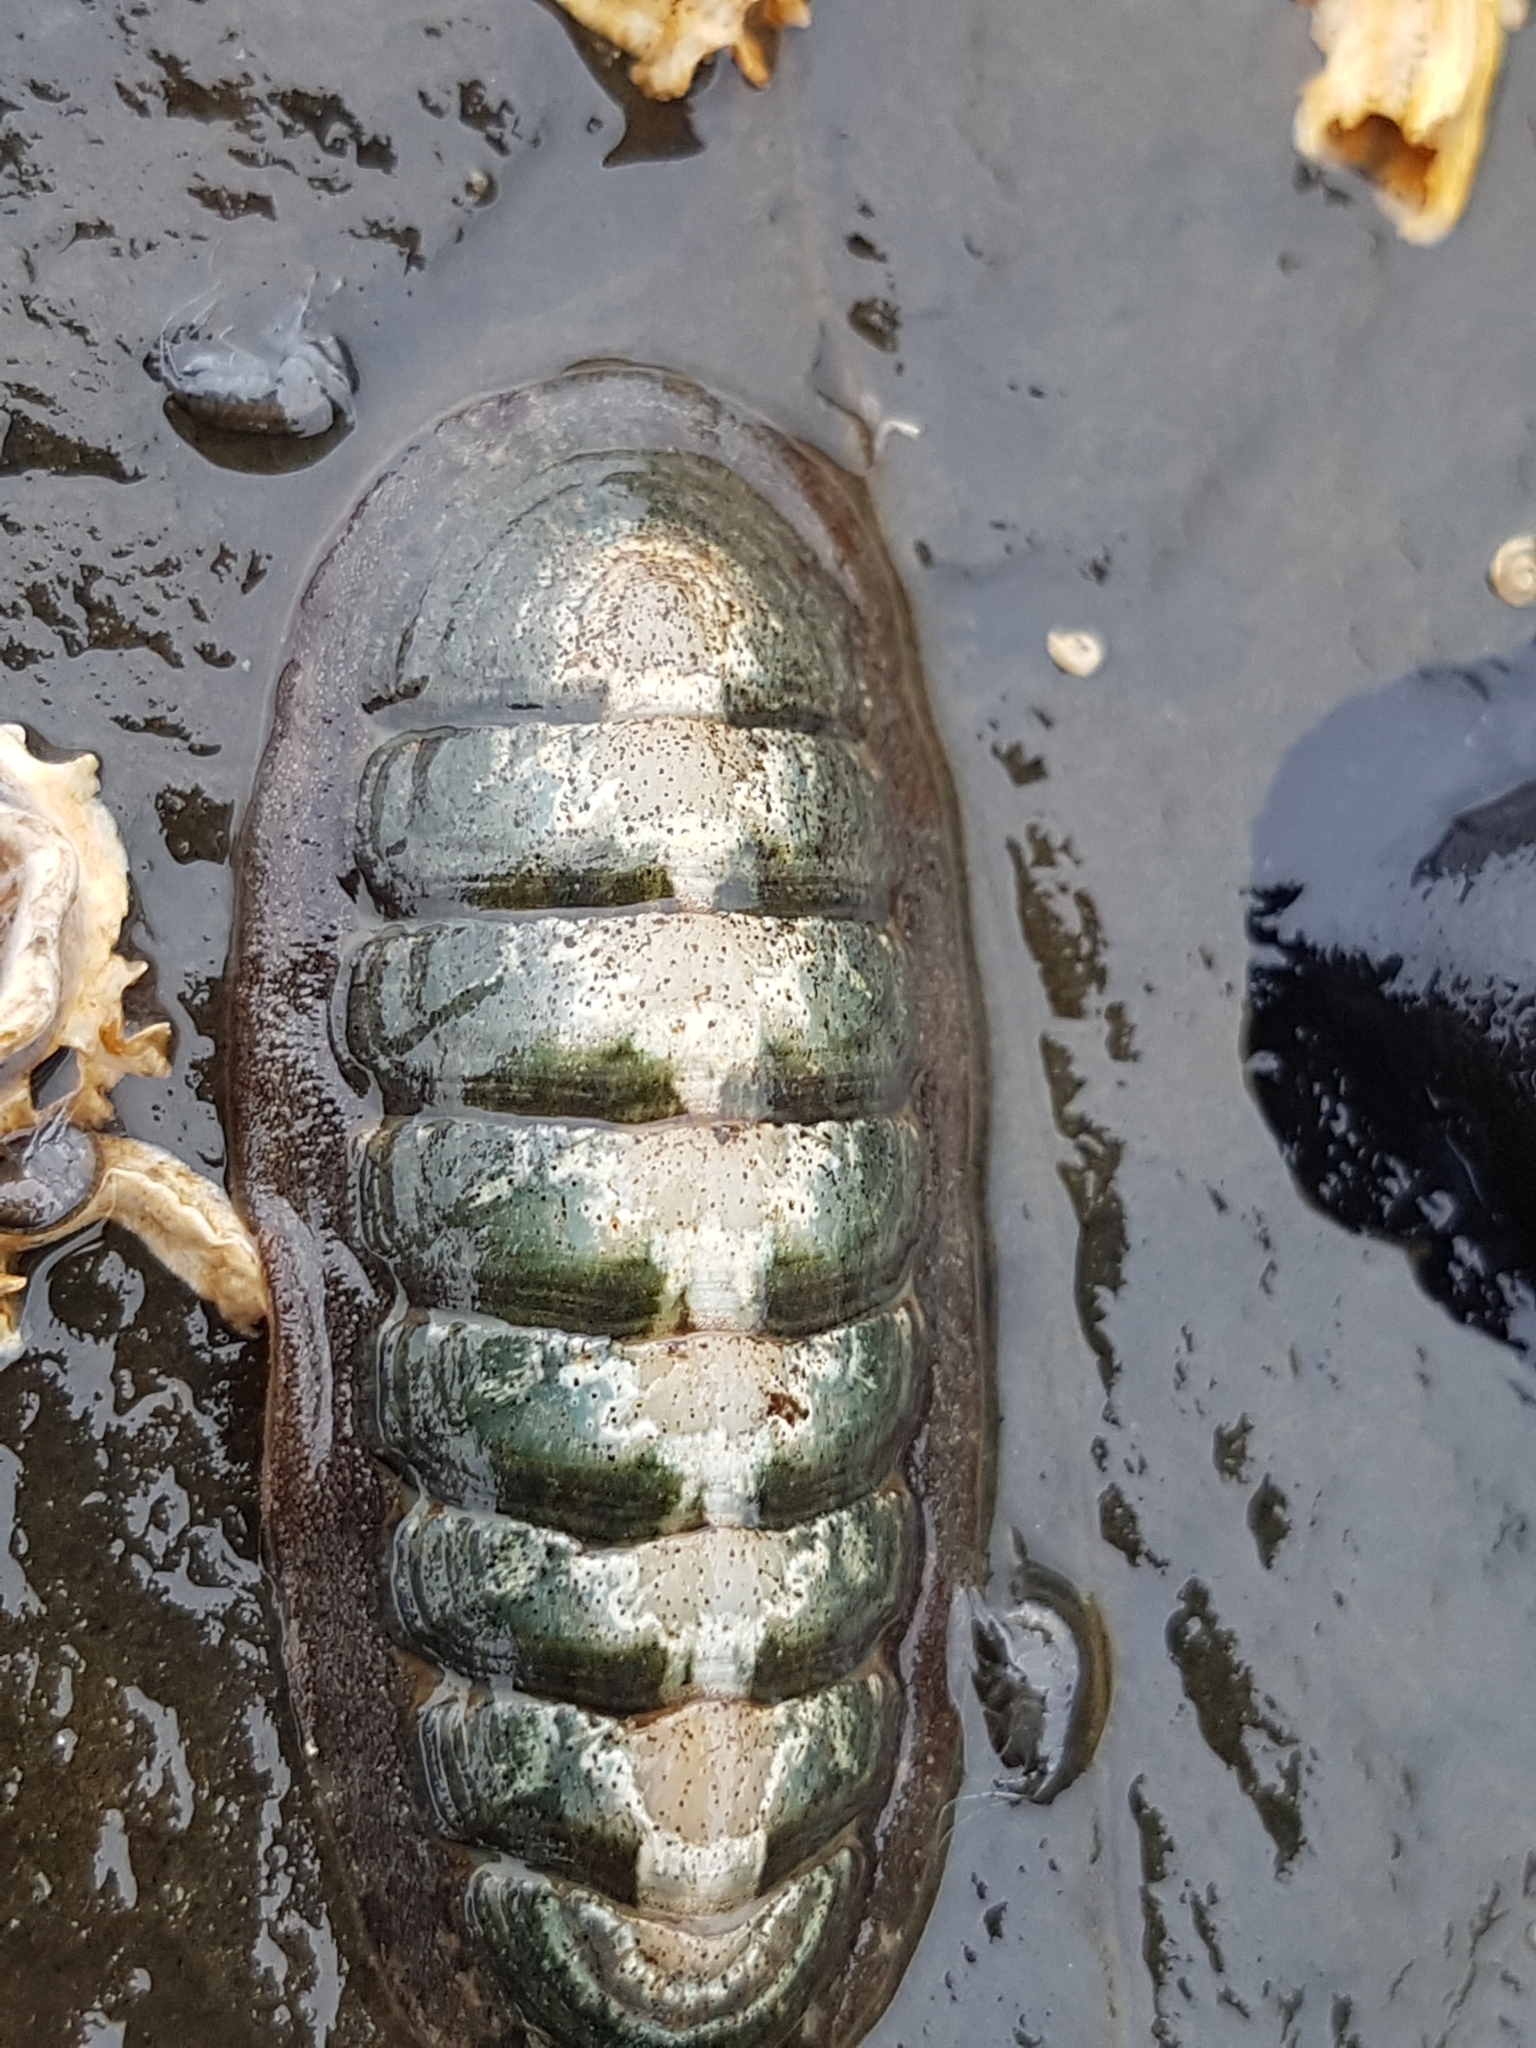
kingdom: Animalia
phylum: Mollusca
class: Polyplacophora
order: Chitonida
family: Ischnochitonidae
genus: Ischnochiton
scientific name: Ischnochiton maorianus
